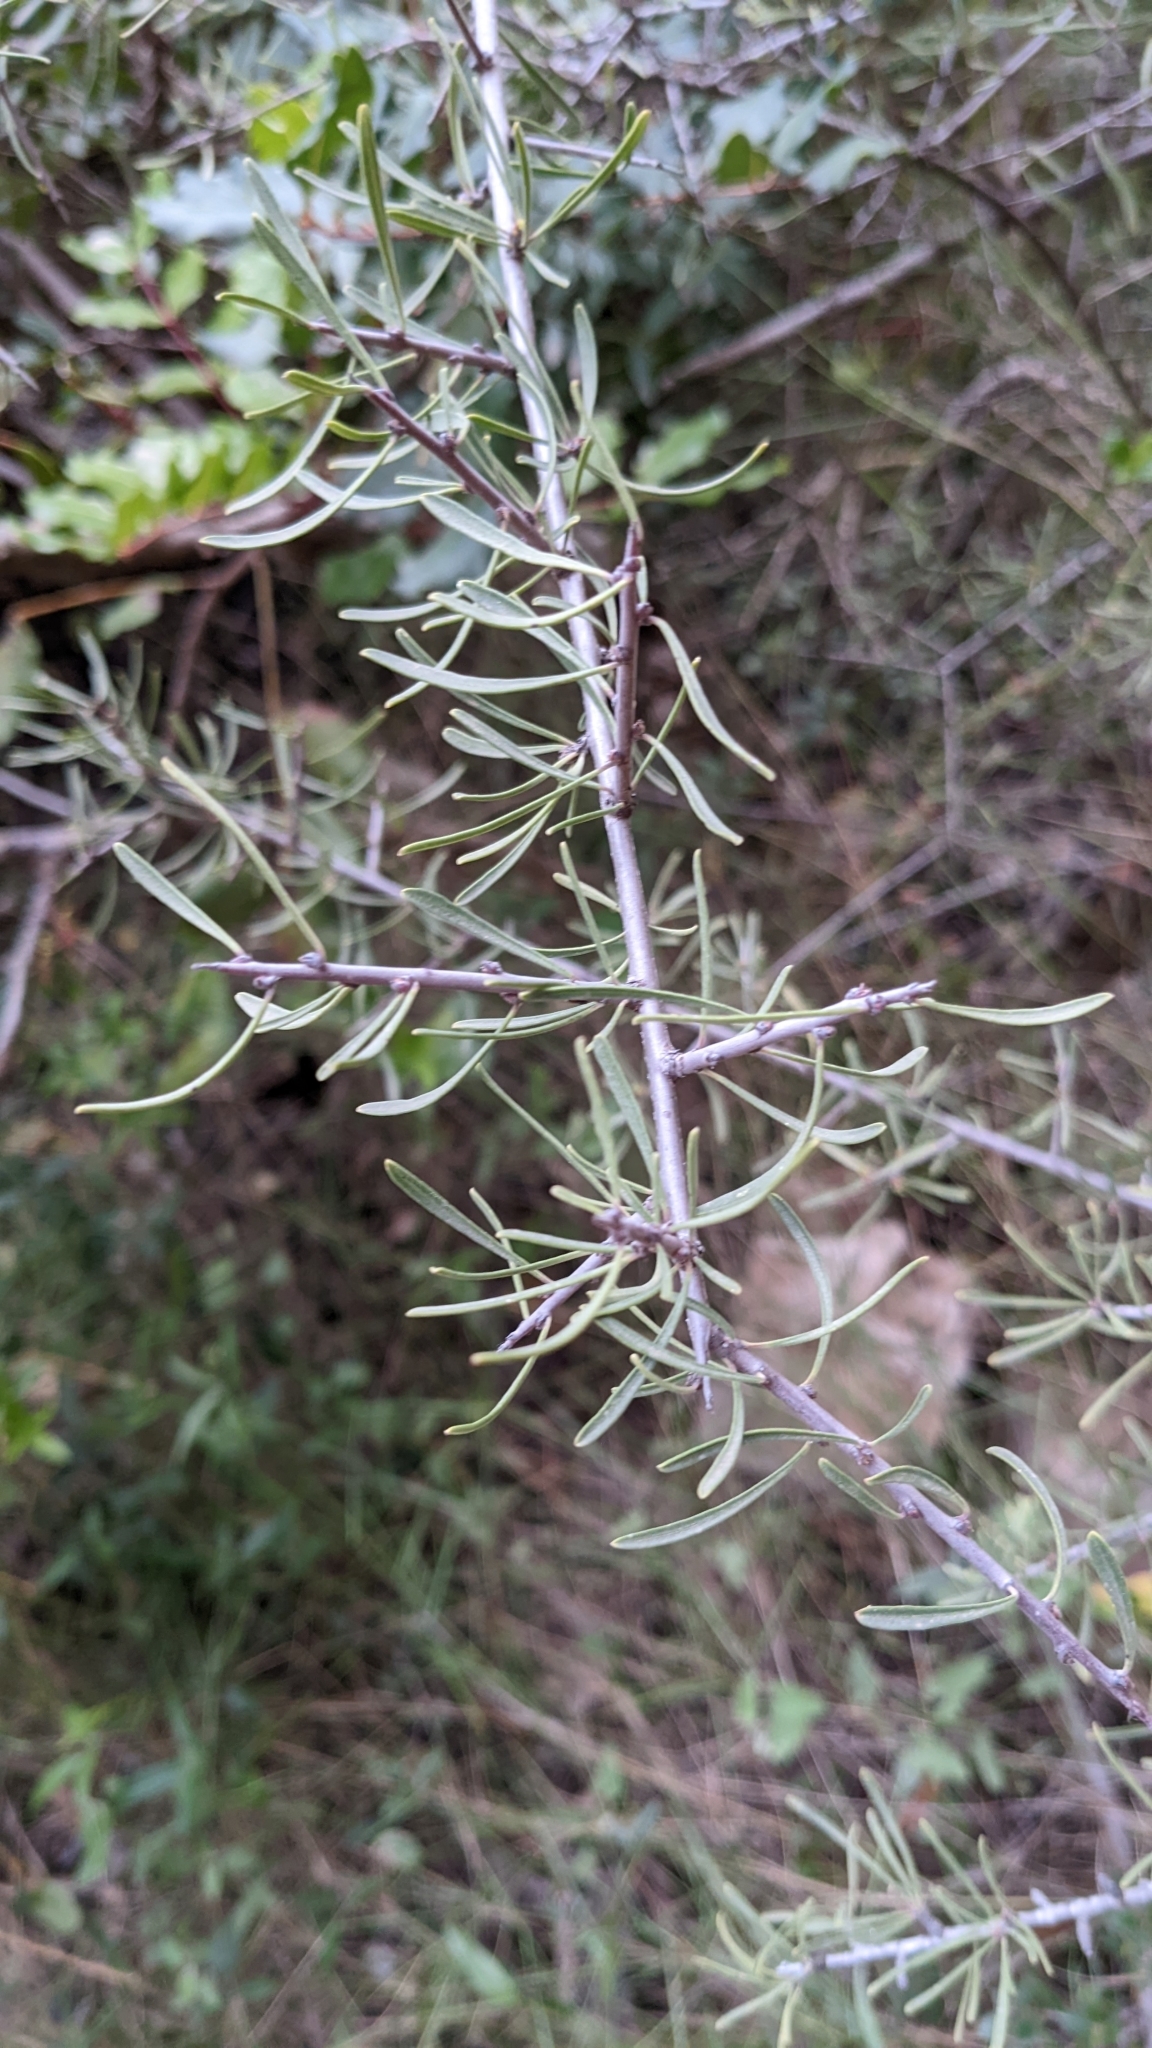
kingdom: Plantae
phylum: Tracheophyta
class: Magnoliopsida
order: Rosales
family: Rhamnaceae
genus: Rhamnus
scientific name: Rhamnus lycioides
